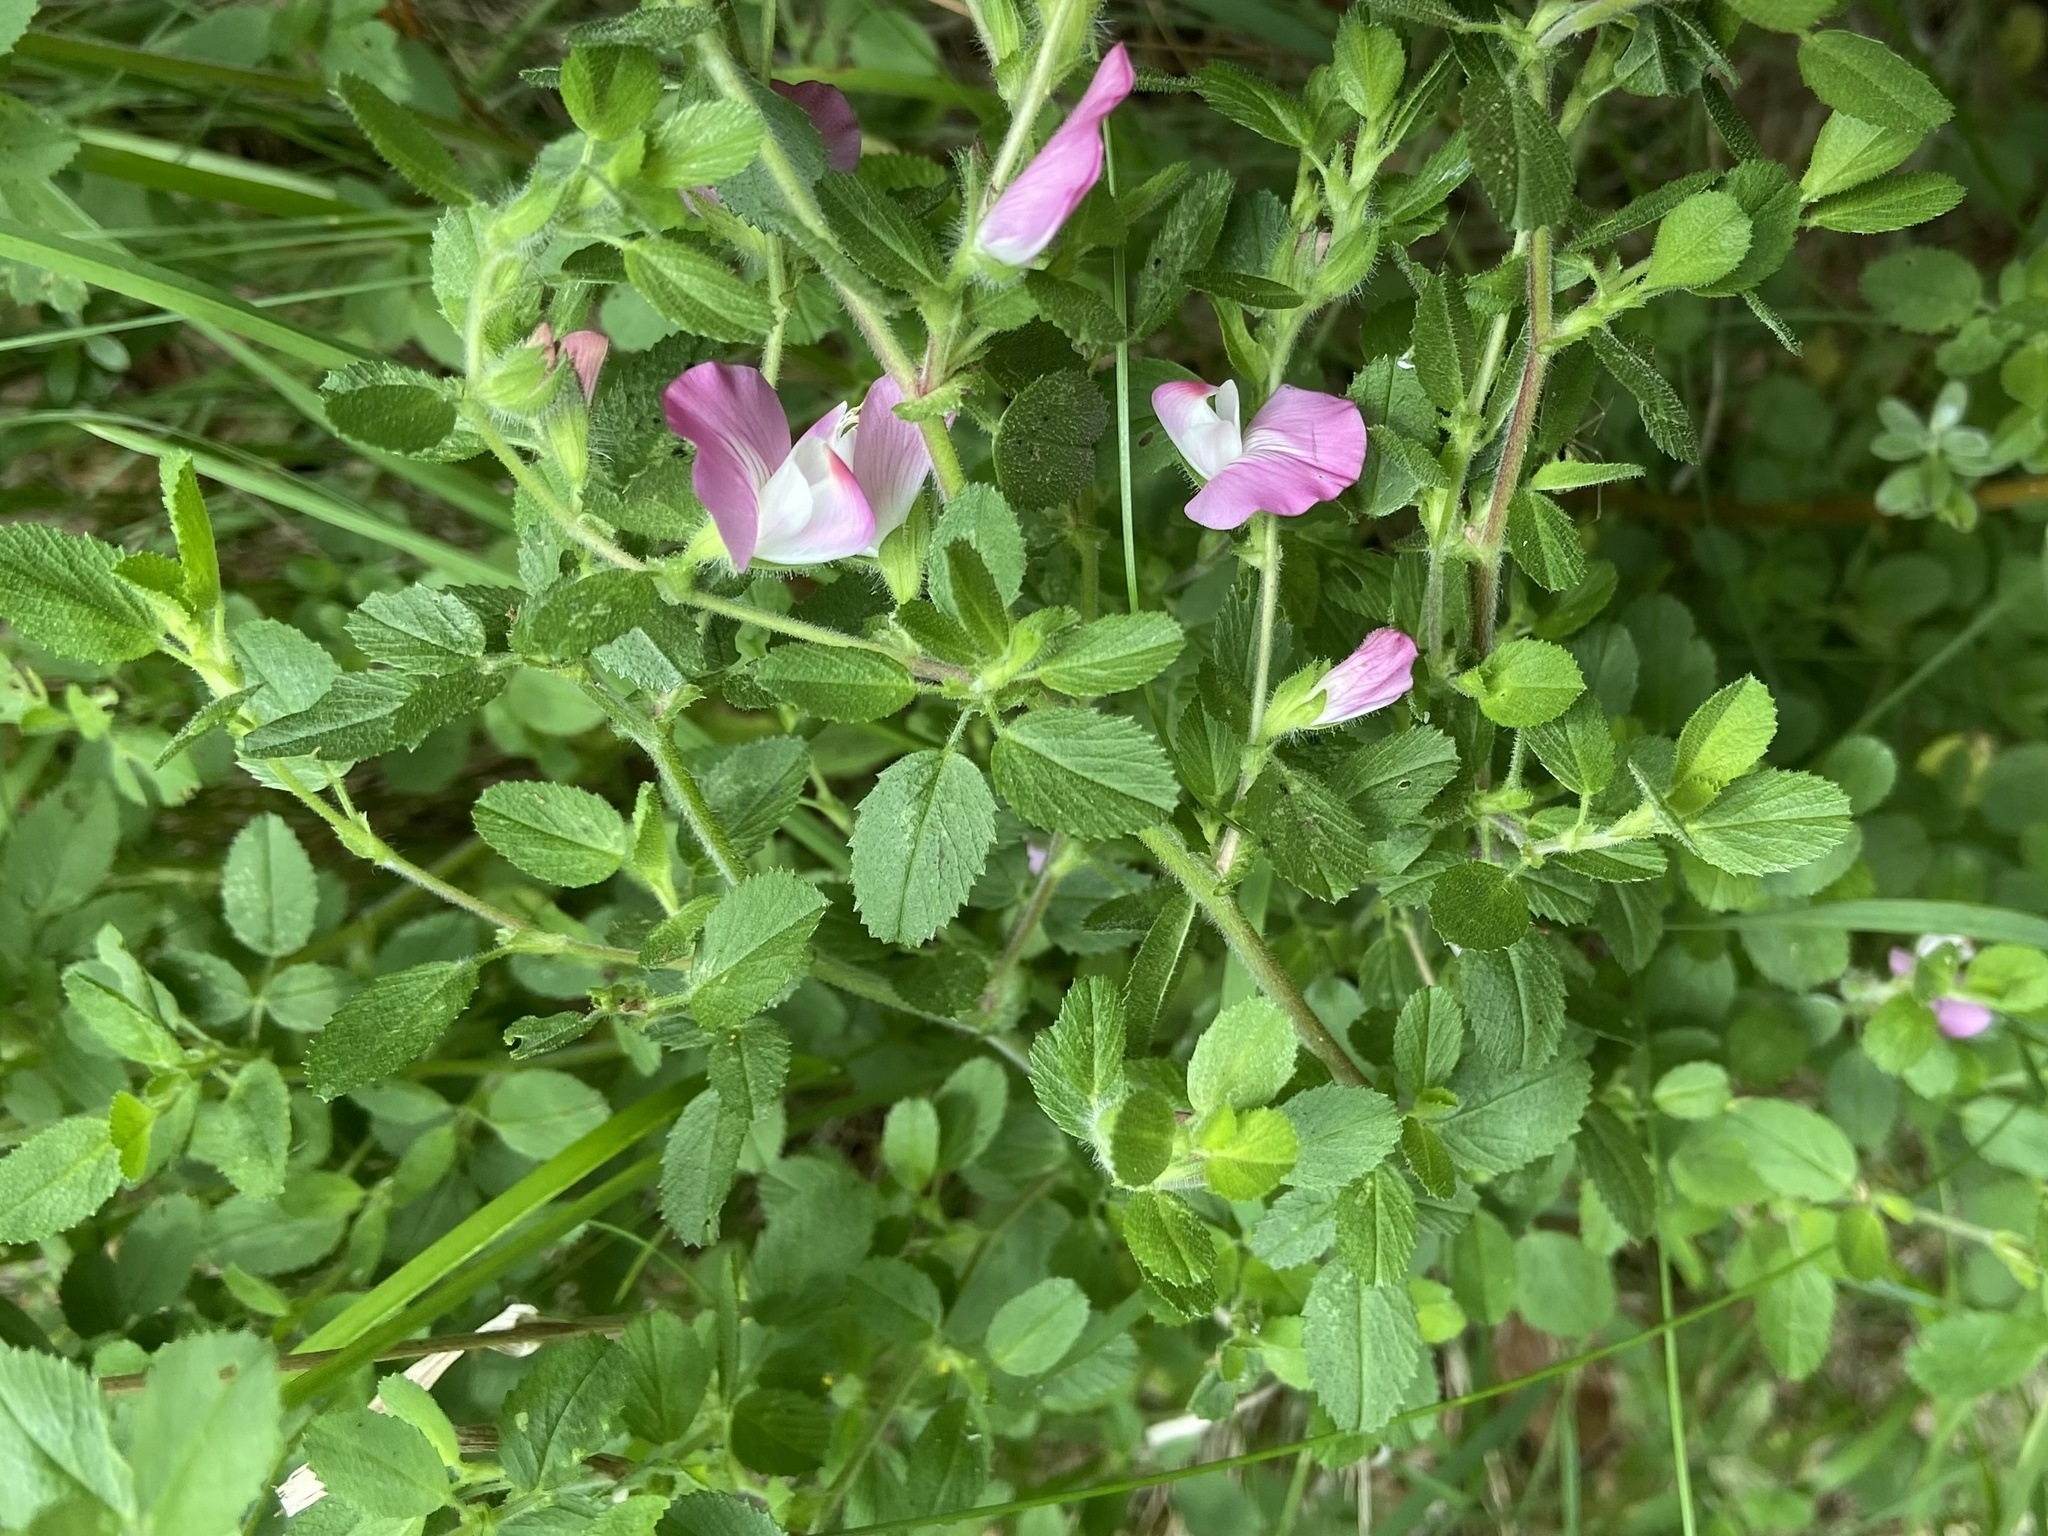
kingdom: Plantae
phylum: Tracheophyta
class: Magnoliopsida
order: Fabales
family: Fabaceae
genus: Ononis
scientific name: Ononis spinosa
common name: Spiny restharrow
